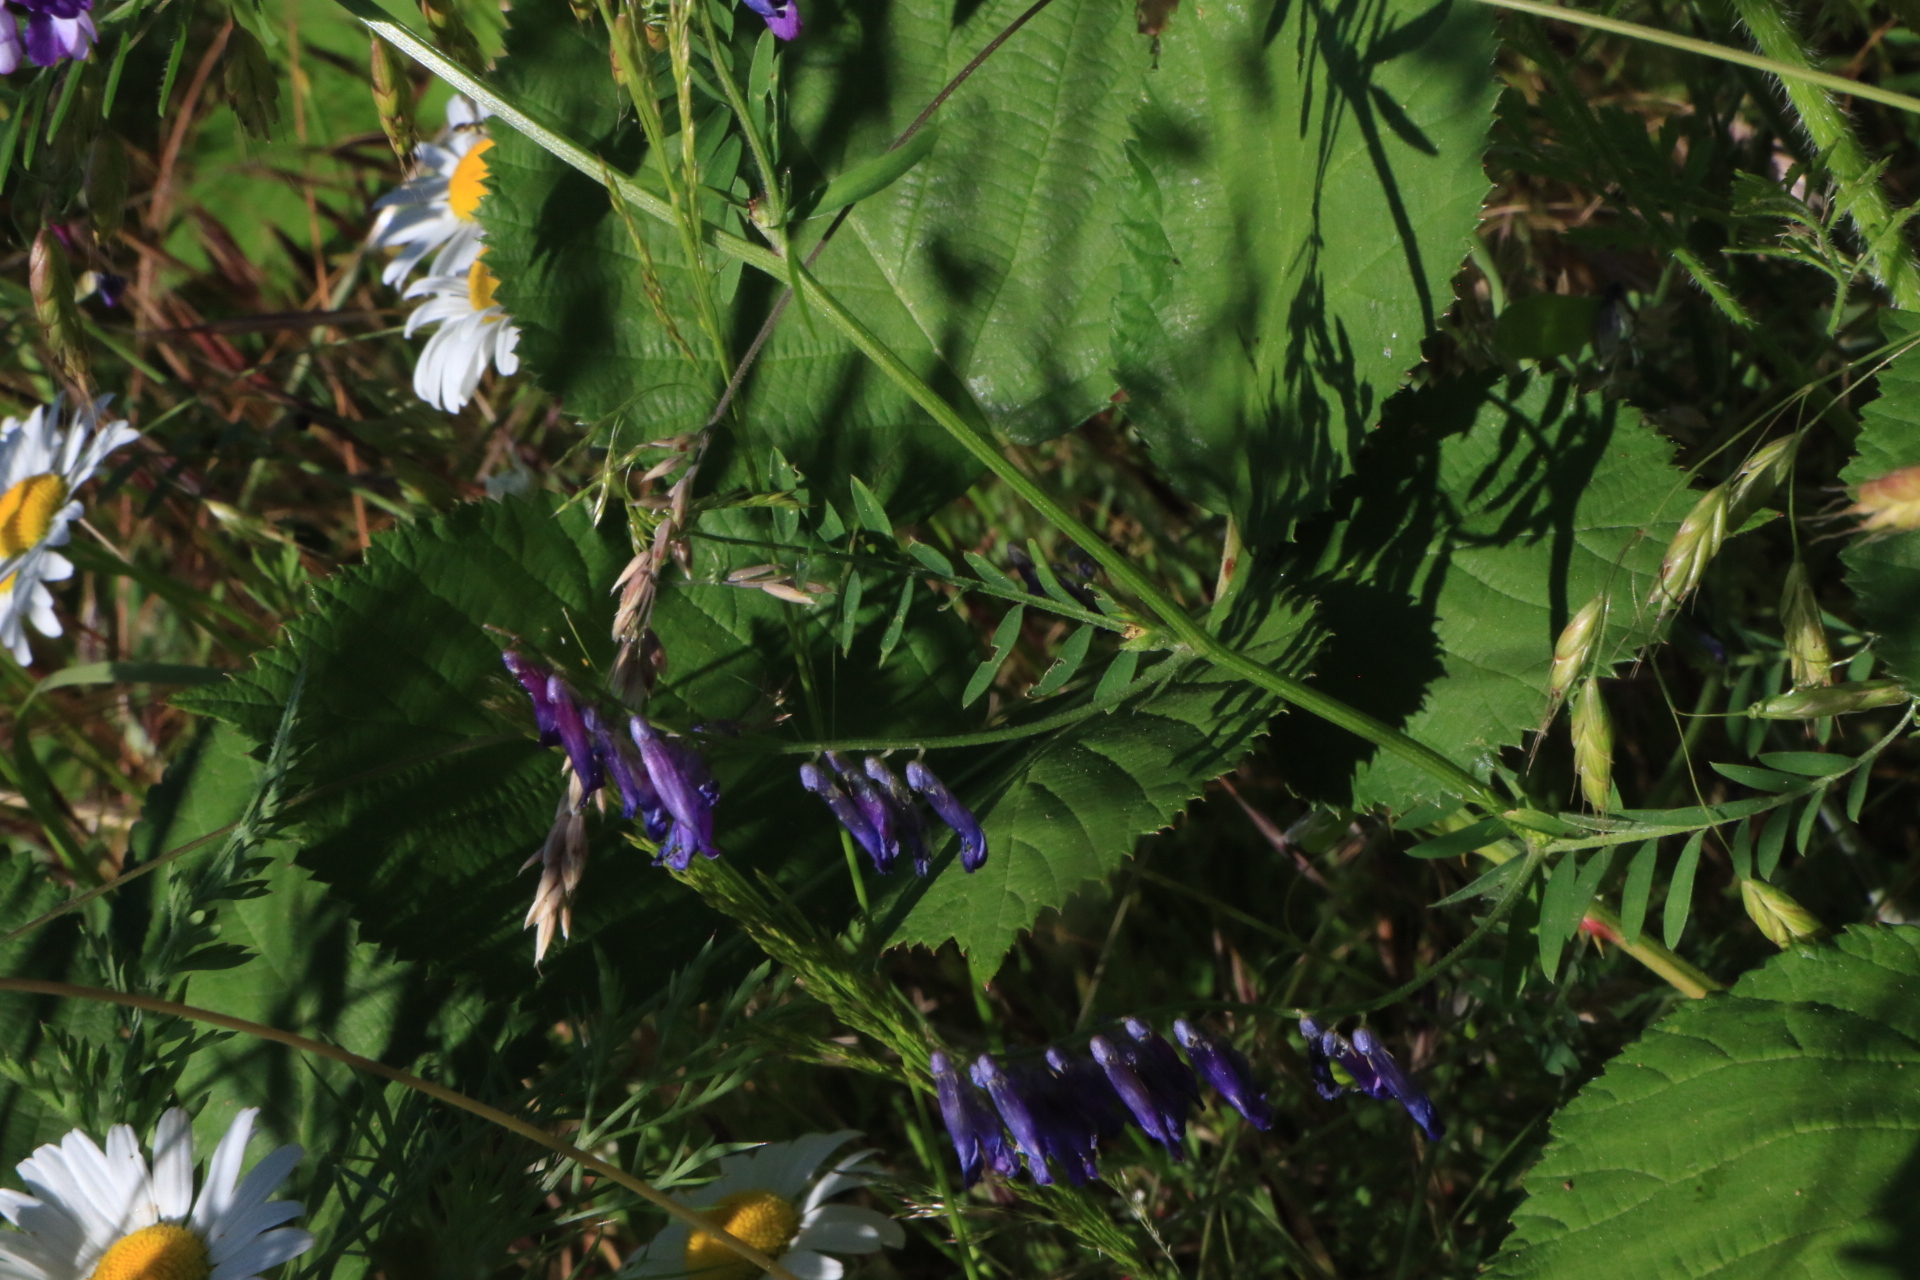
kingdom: Plantae
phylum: Tracheophyta
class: Magnoliopsida
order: Fabales
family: Fabaceae
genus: Vicia
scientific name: Vicia villosa
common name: Fodder vetch
